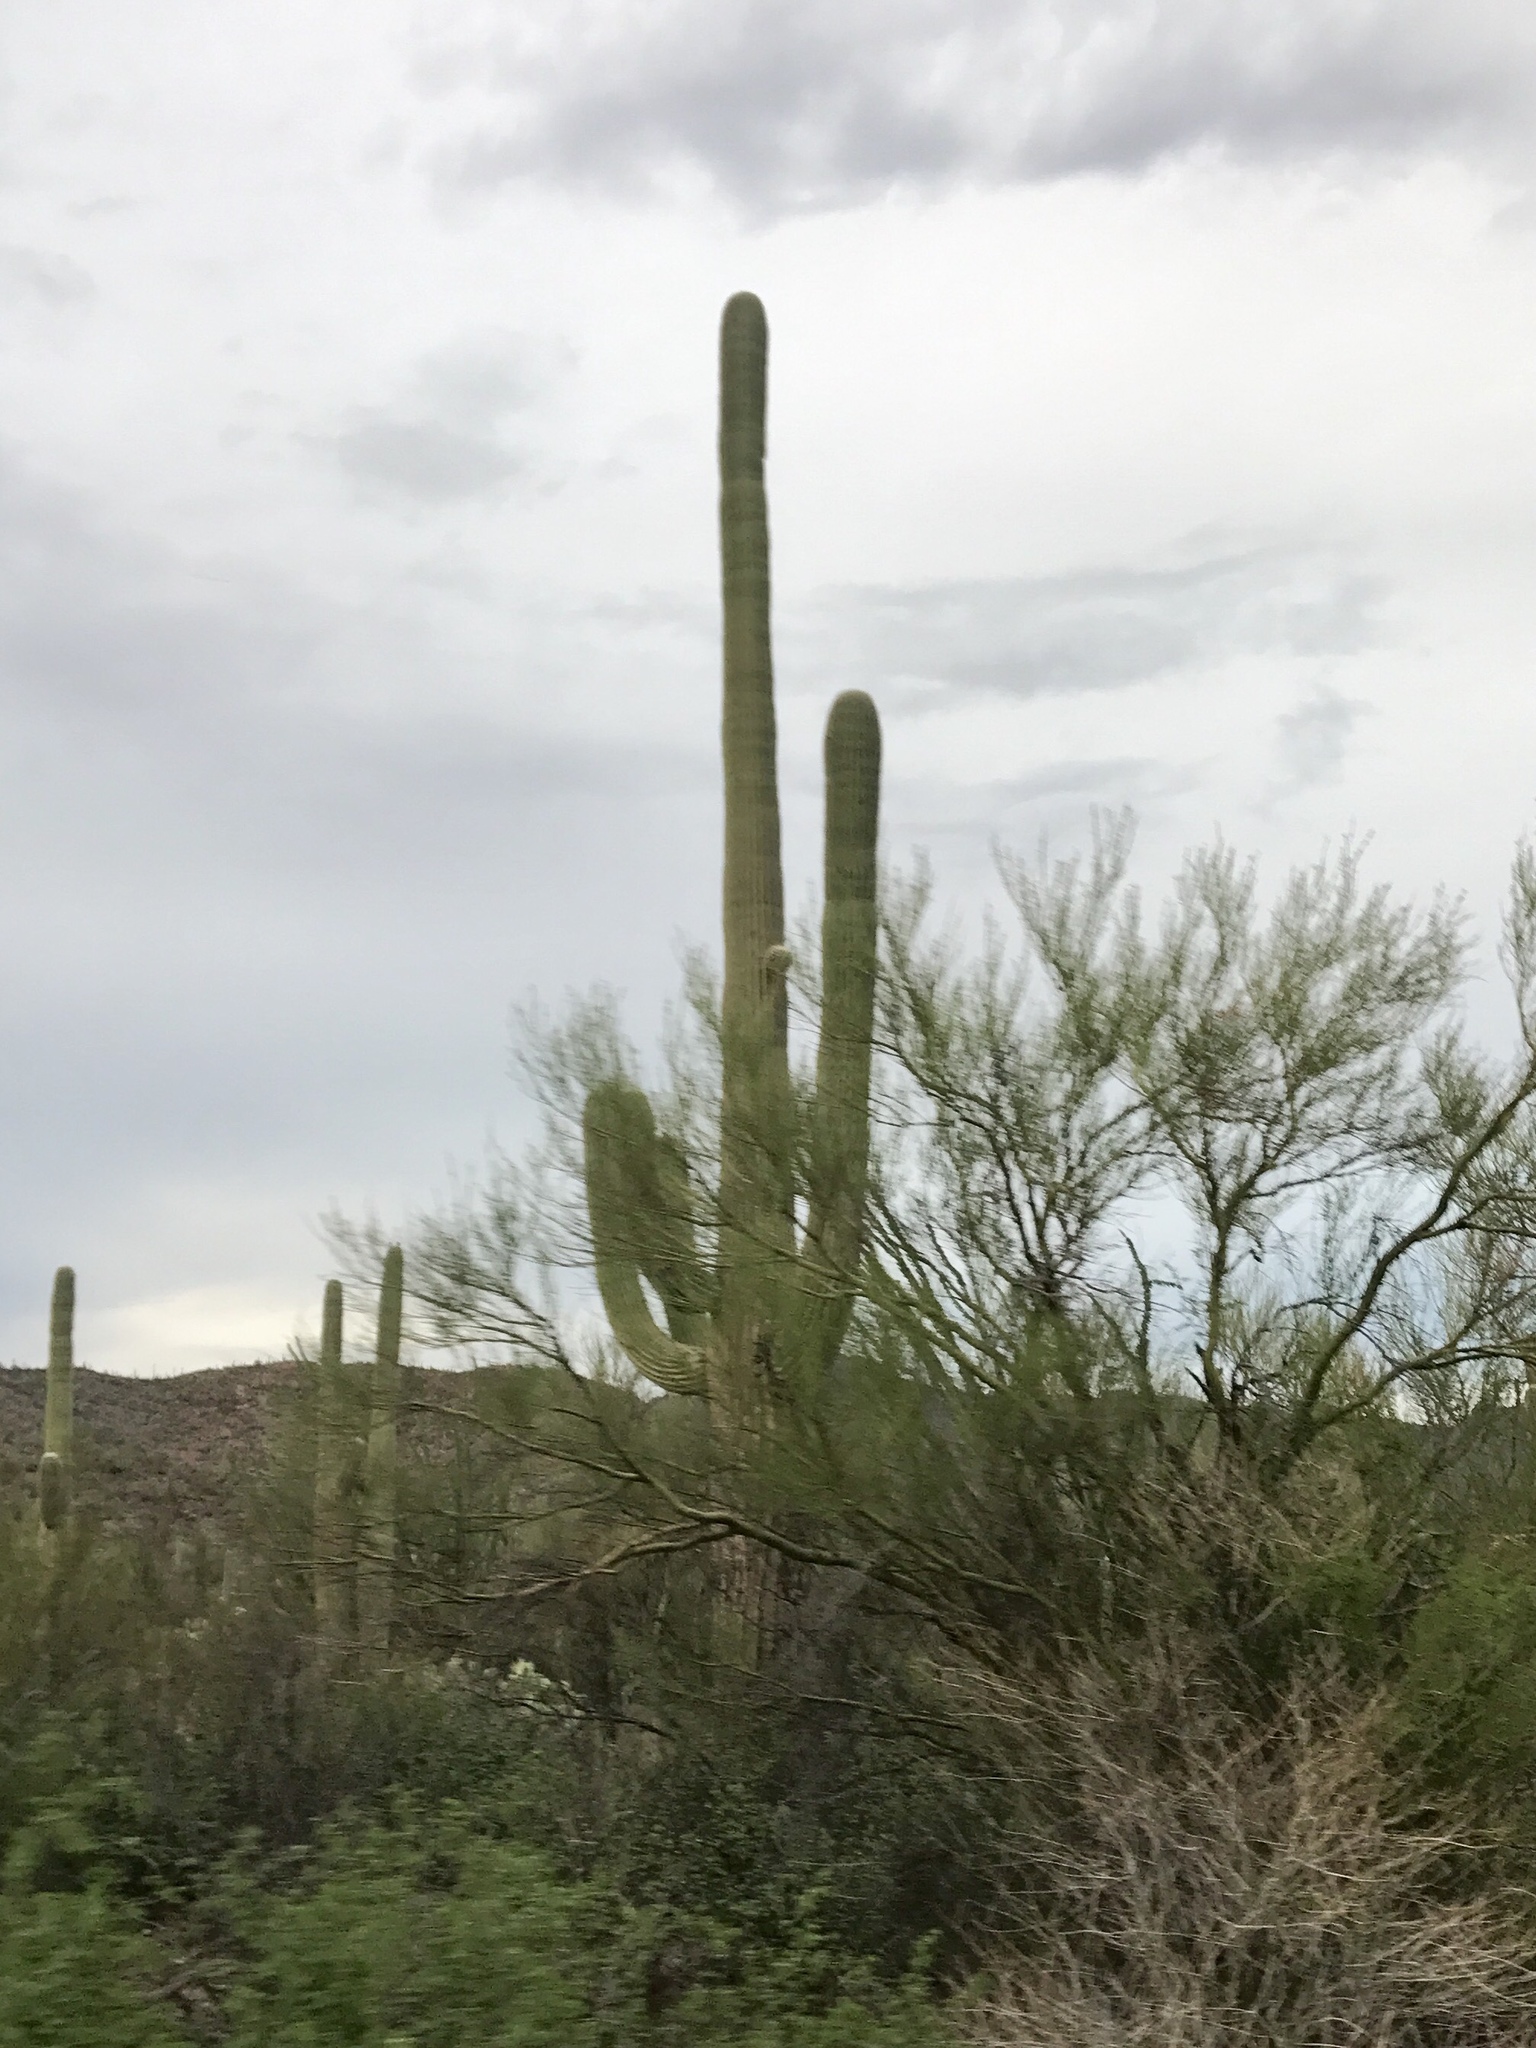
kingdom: Plantae
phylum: Tracheophyta
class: Magnoliopsida
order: Caryophyllales
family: Cactaceae
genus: Carnegiea
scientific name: Carnegiea gigantea
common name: Saguaro
